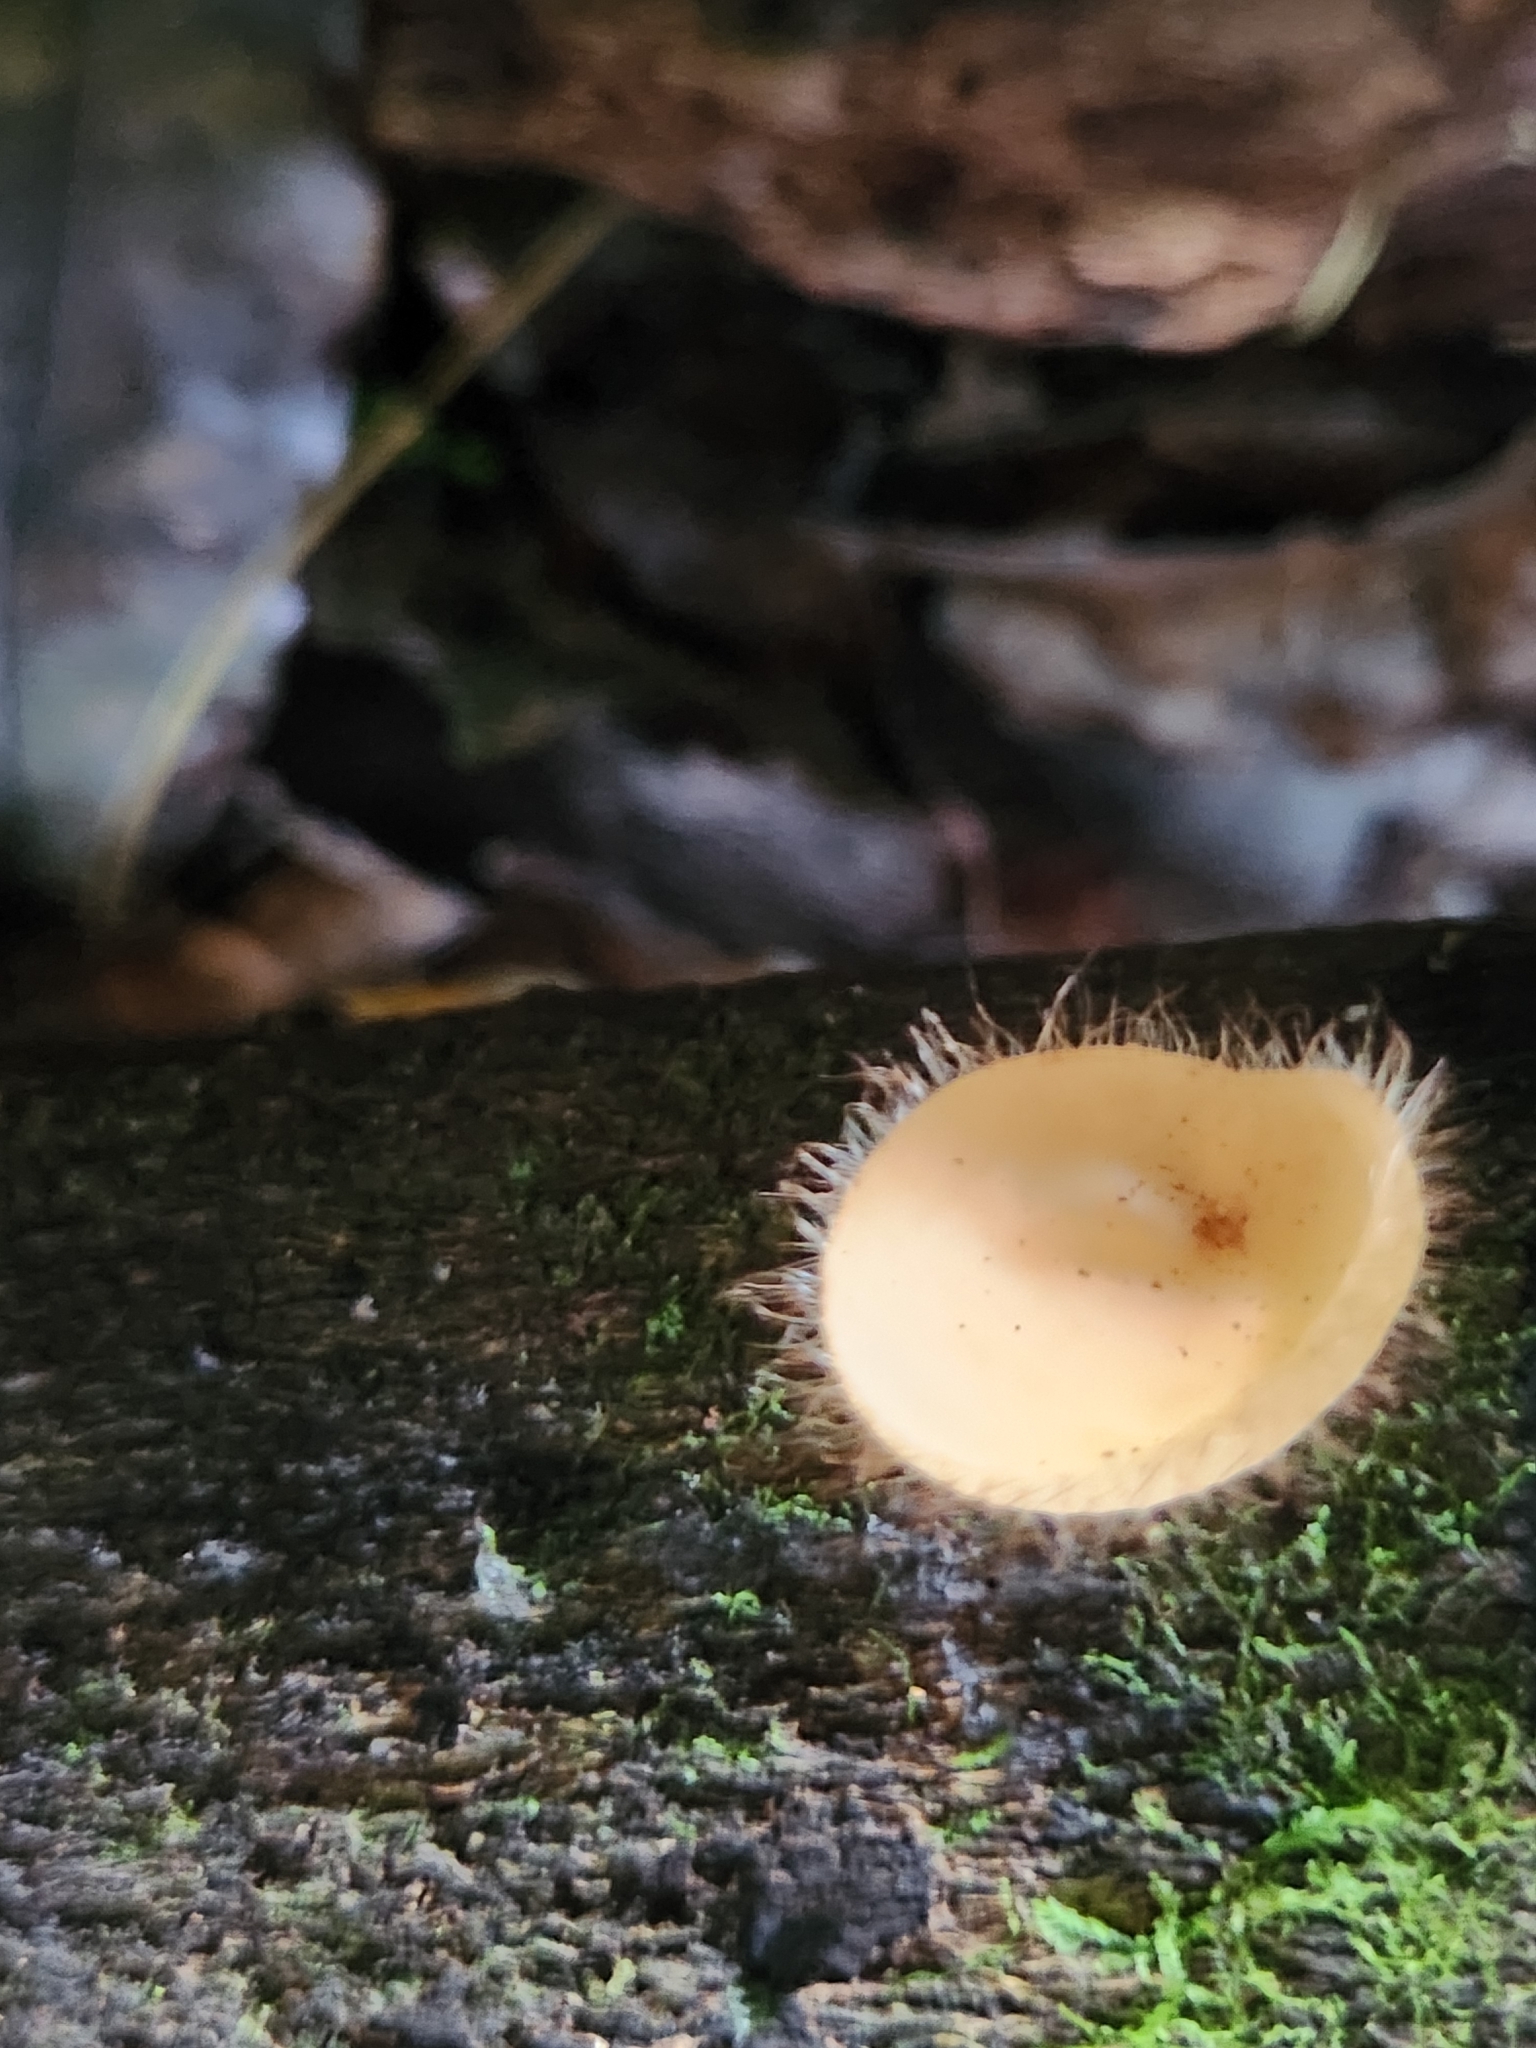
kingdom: Fungi
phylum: Ascomycota
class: Pezizomycetes
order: Pezizales
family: Sarcoscyphaceae
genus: Cookeina
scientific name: Cookeina tricholoma
